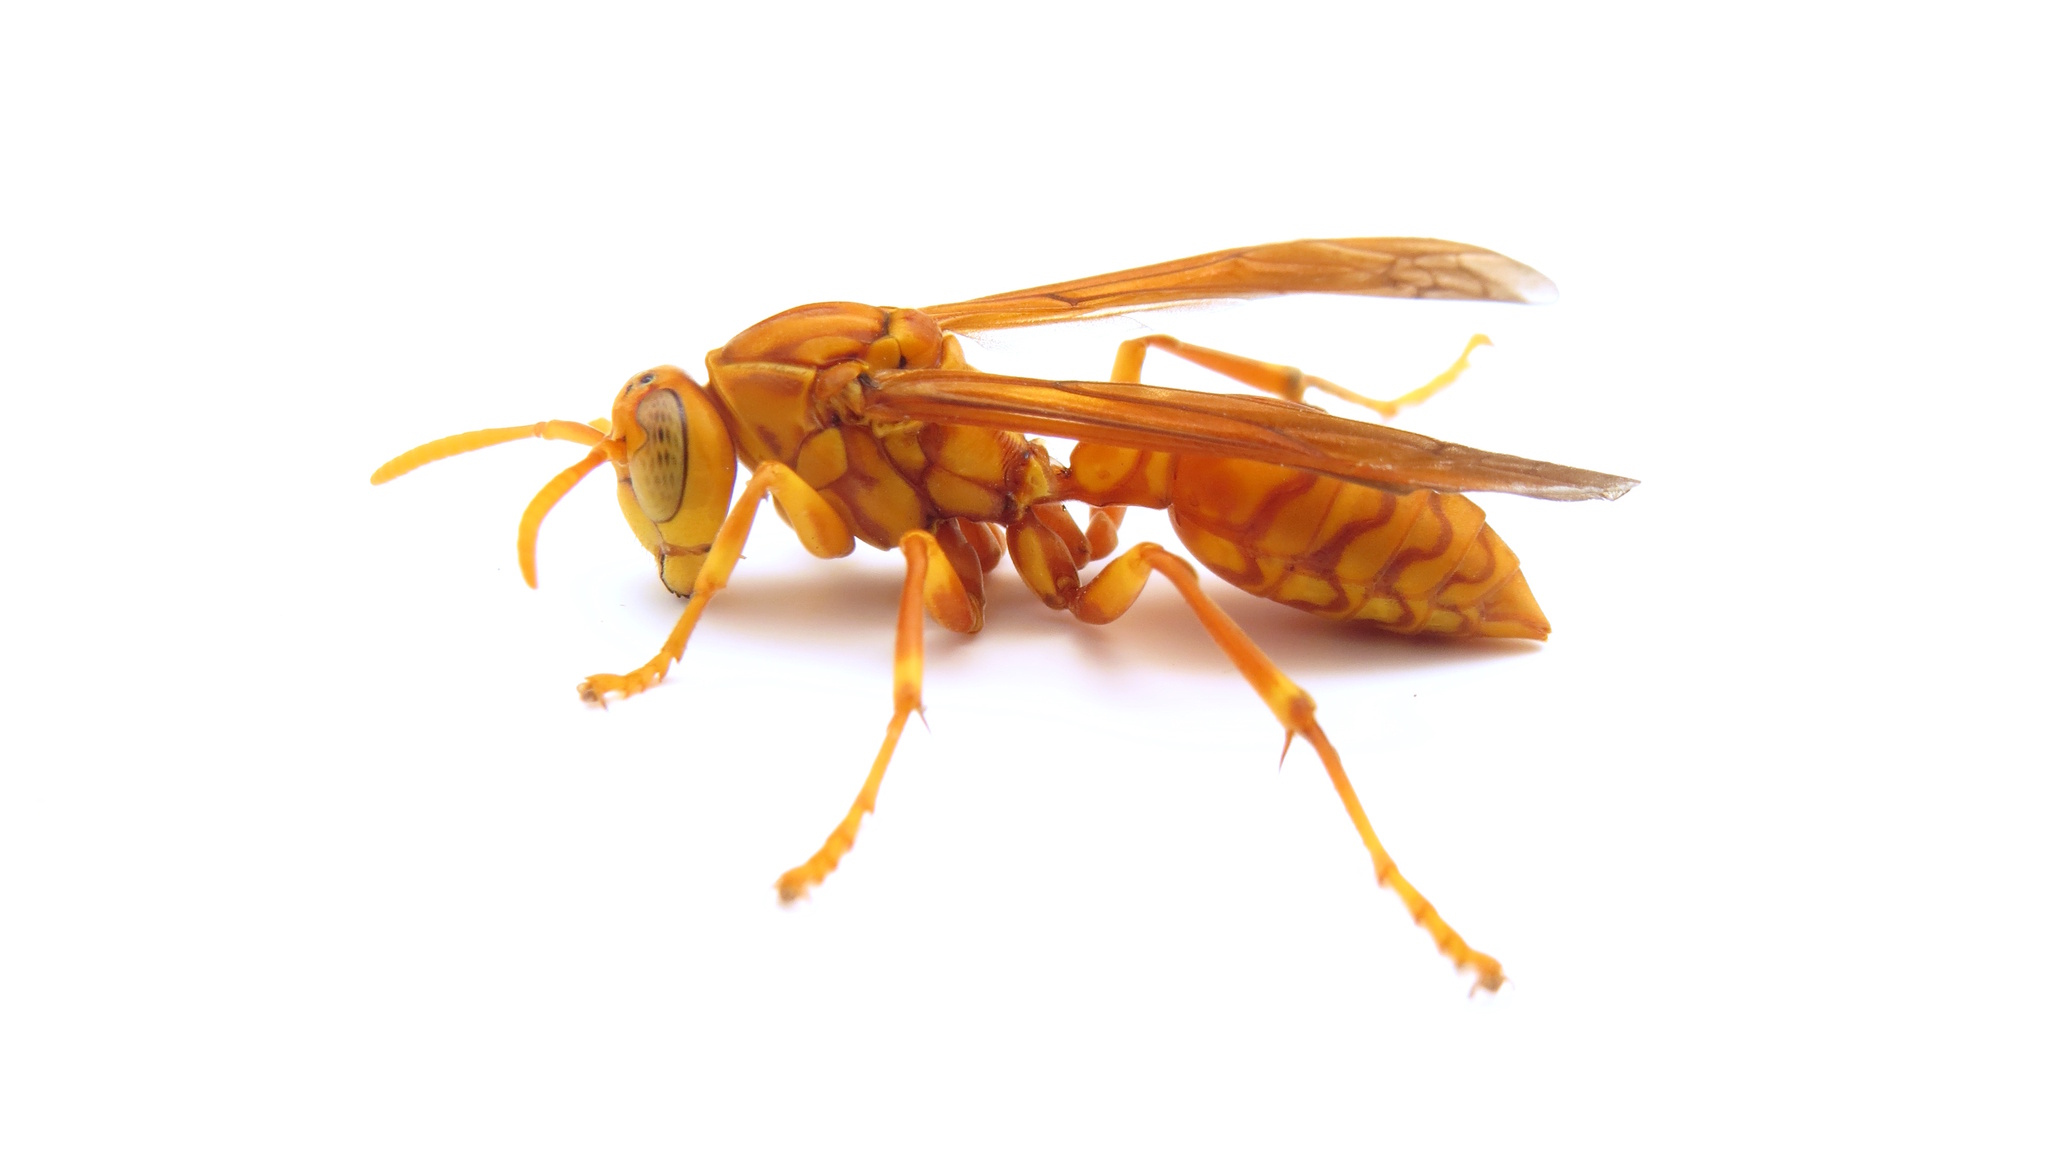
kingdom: Animalia
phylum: Arthropoda
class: Insecta
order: Hymenoptera
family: Eumenidae
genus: Polistes
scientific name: Polistes wattii
